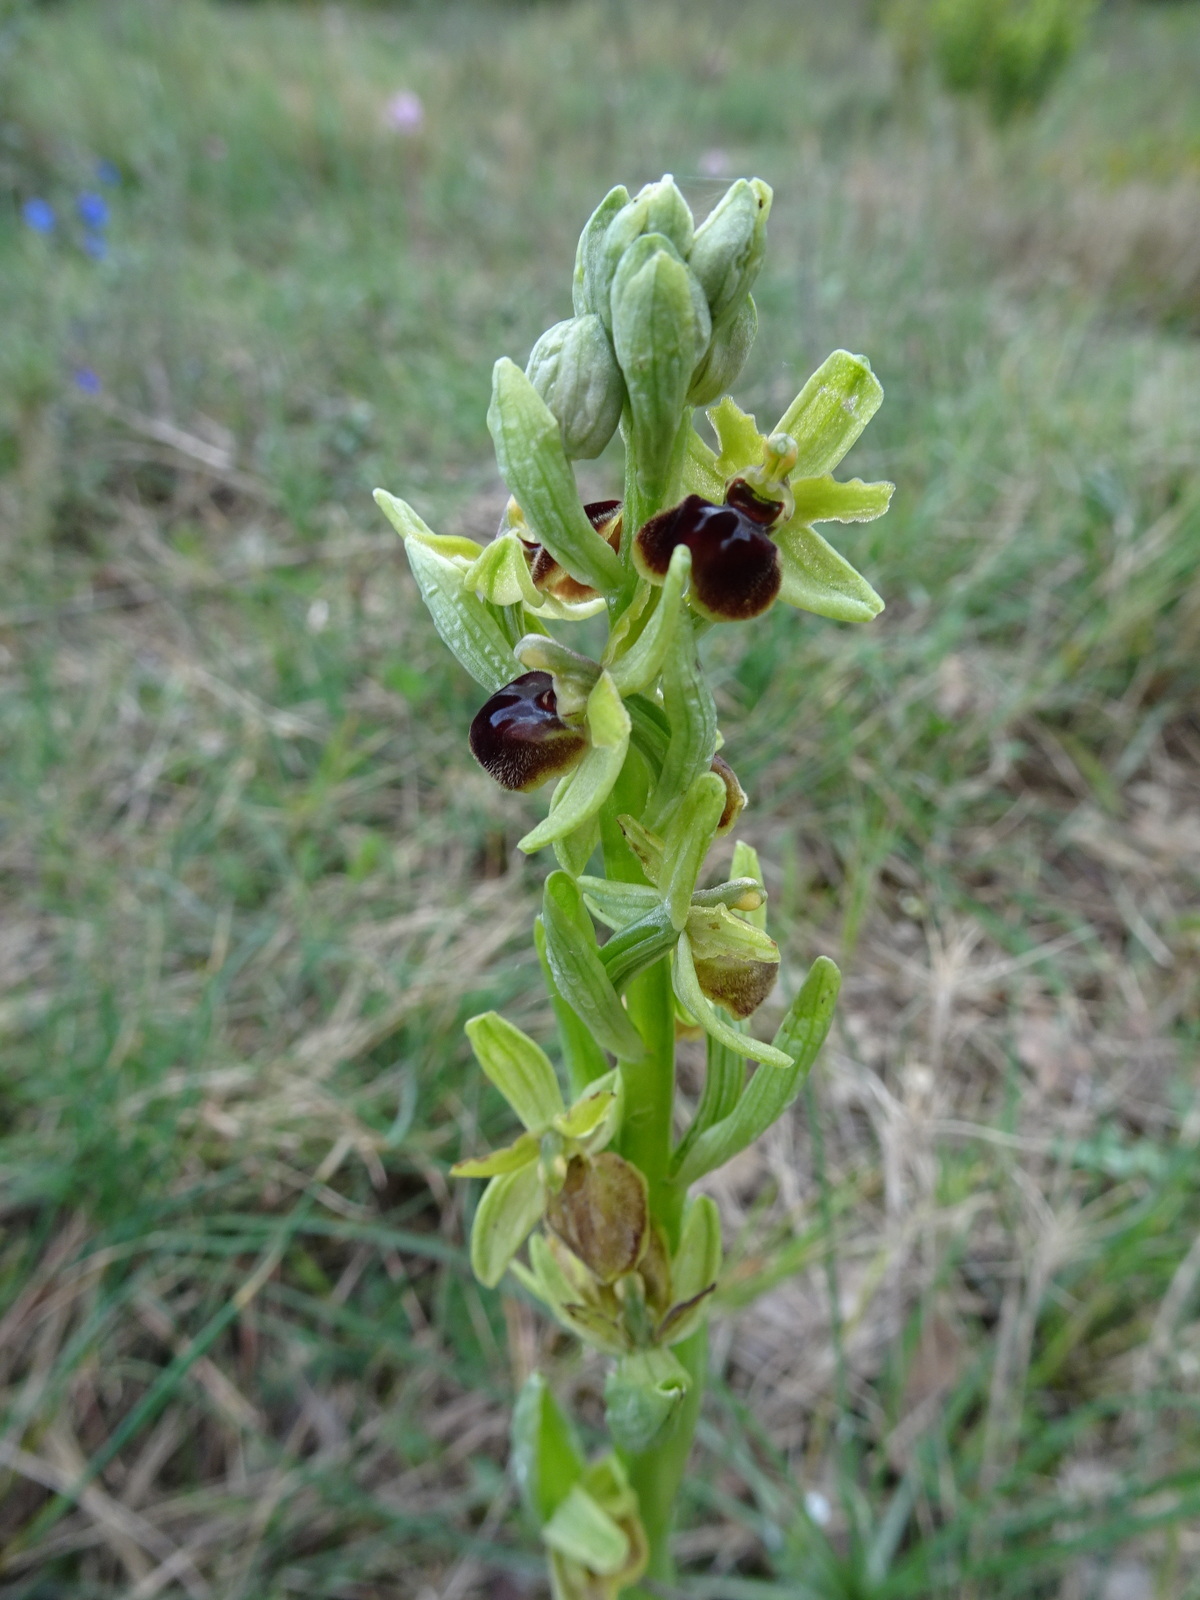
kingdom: Plantae
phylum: Tracheophyta
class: Liliopsida
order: Asparagales
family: Orchidaceae
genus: Ophrys
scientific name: Ophrys sphegodes
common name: Early spider-orchid
